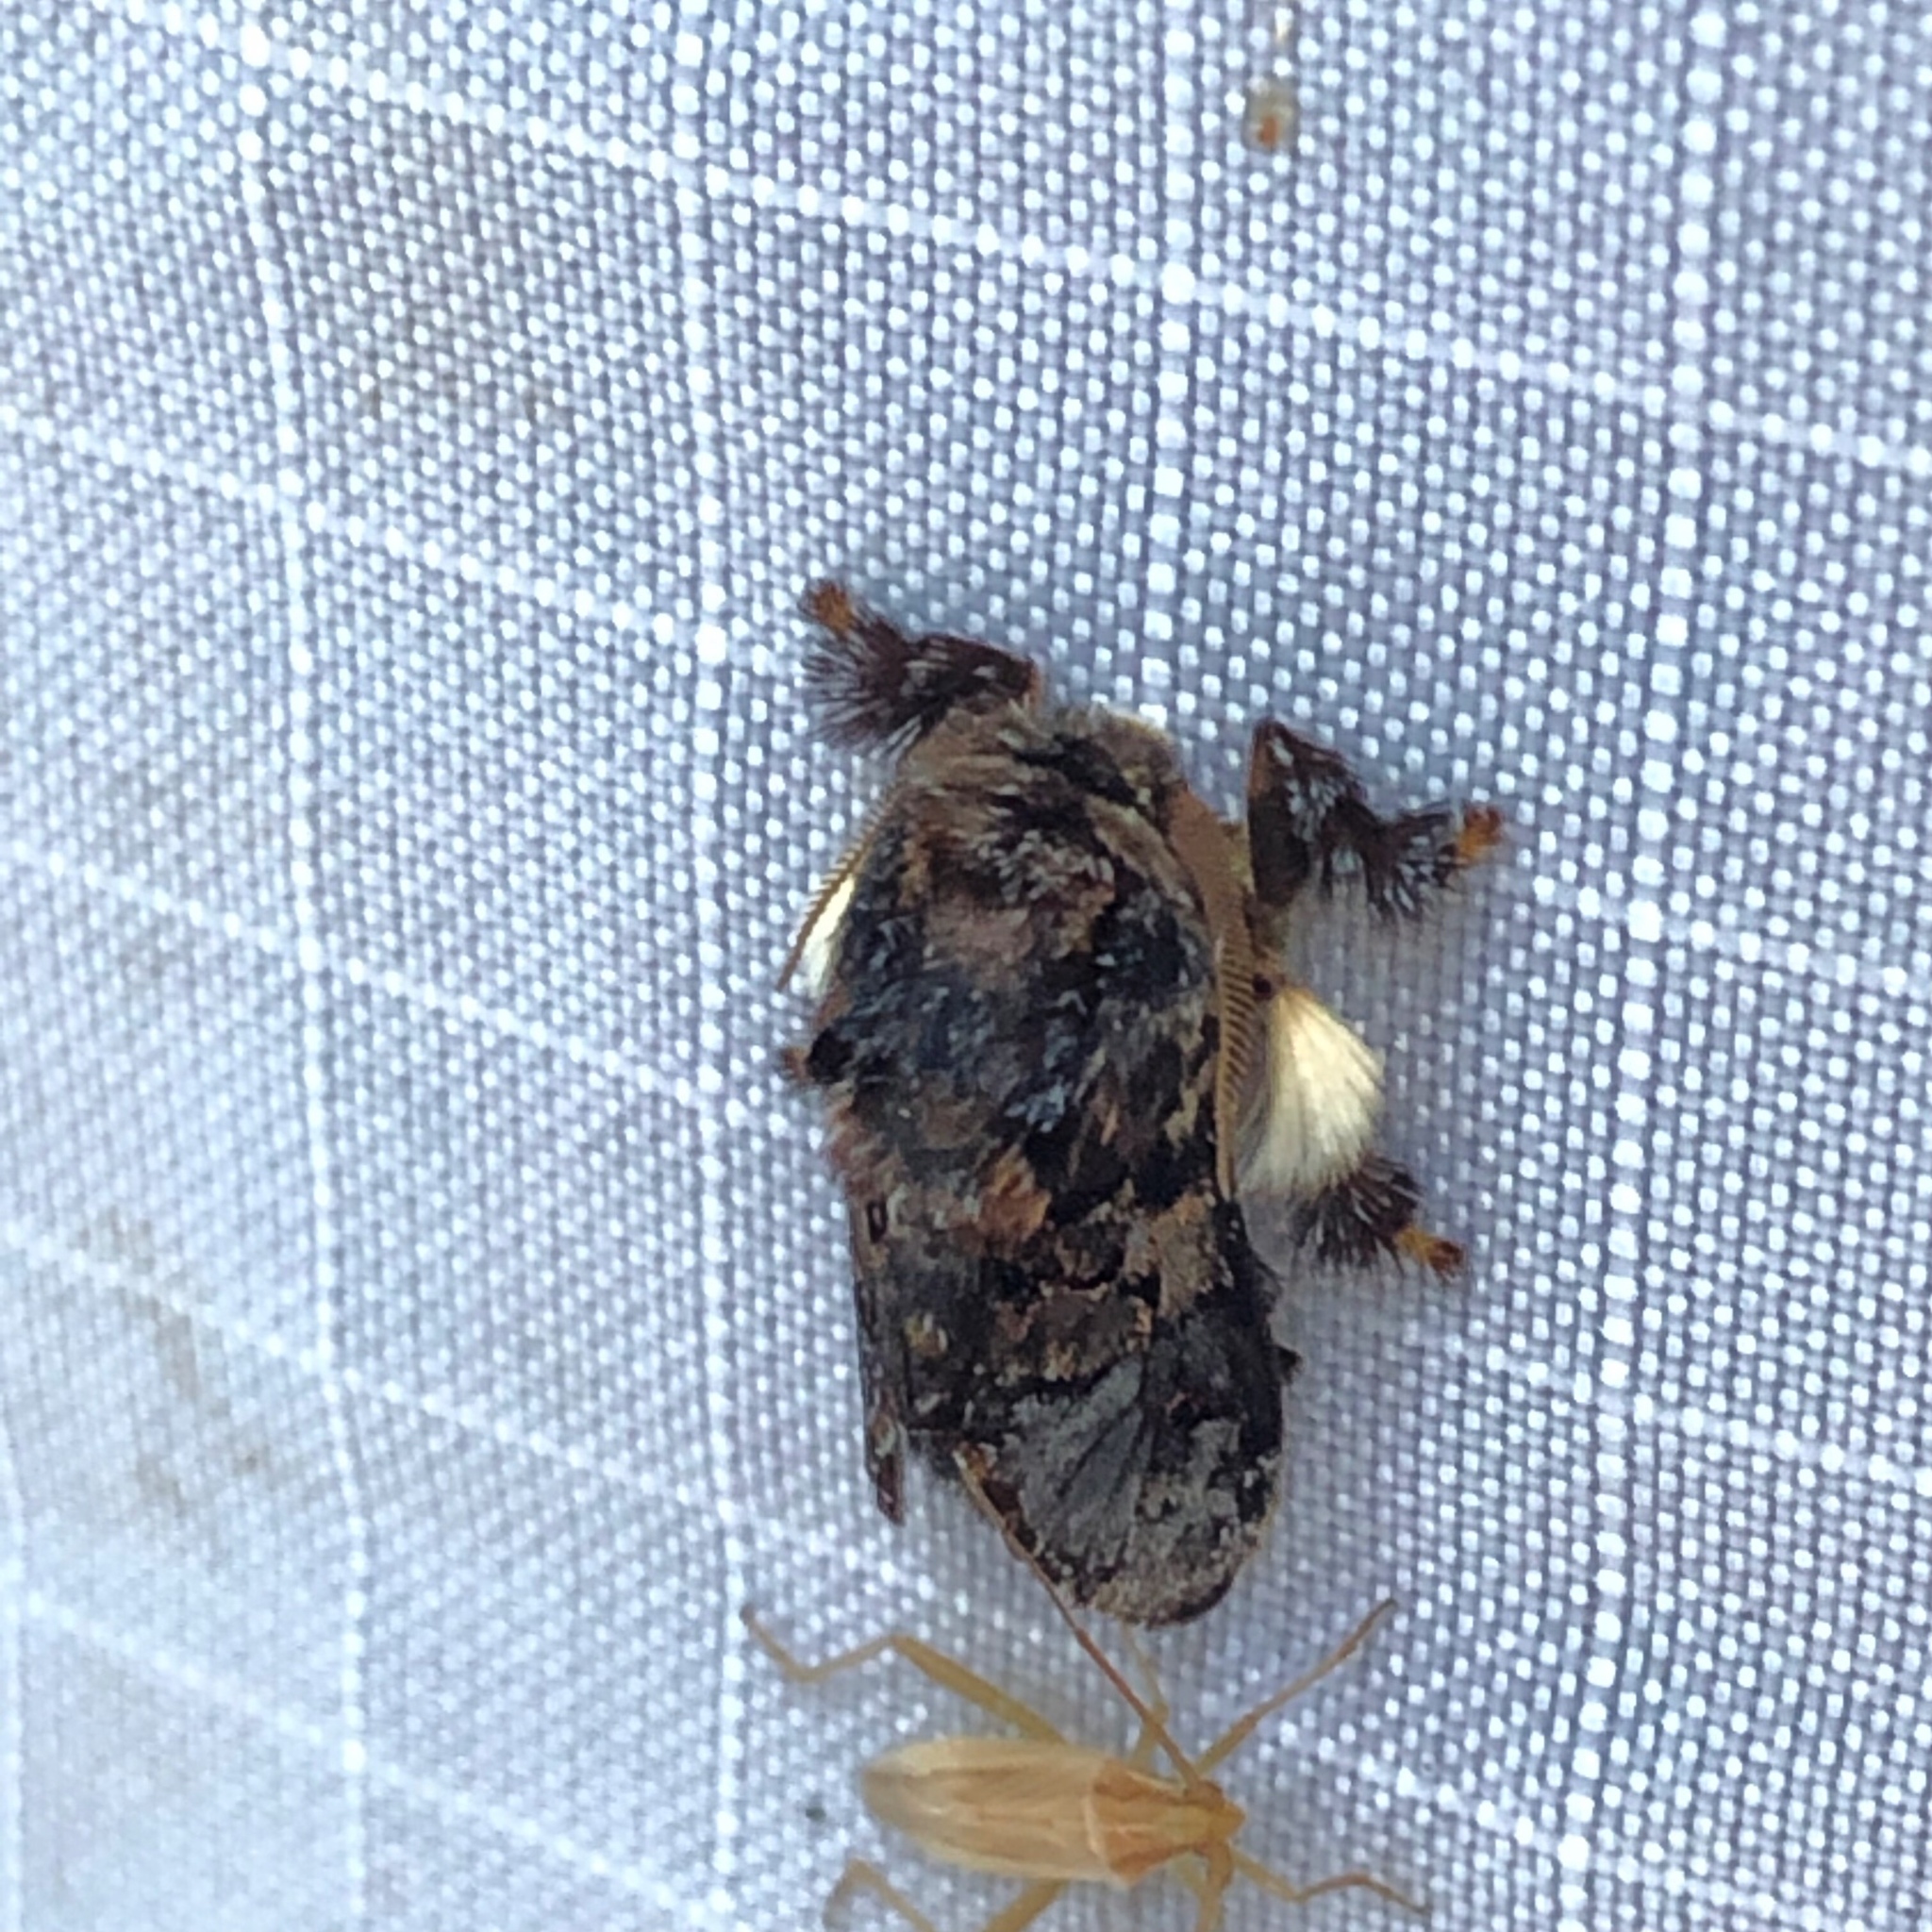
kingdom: Animalia
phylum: Arthropoda
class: Insecta
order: Lepidoptera
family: Limacodidae
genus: Phobetron
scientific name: Phobetron pithecium
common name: Hag moth
